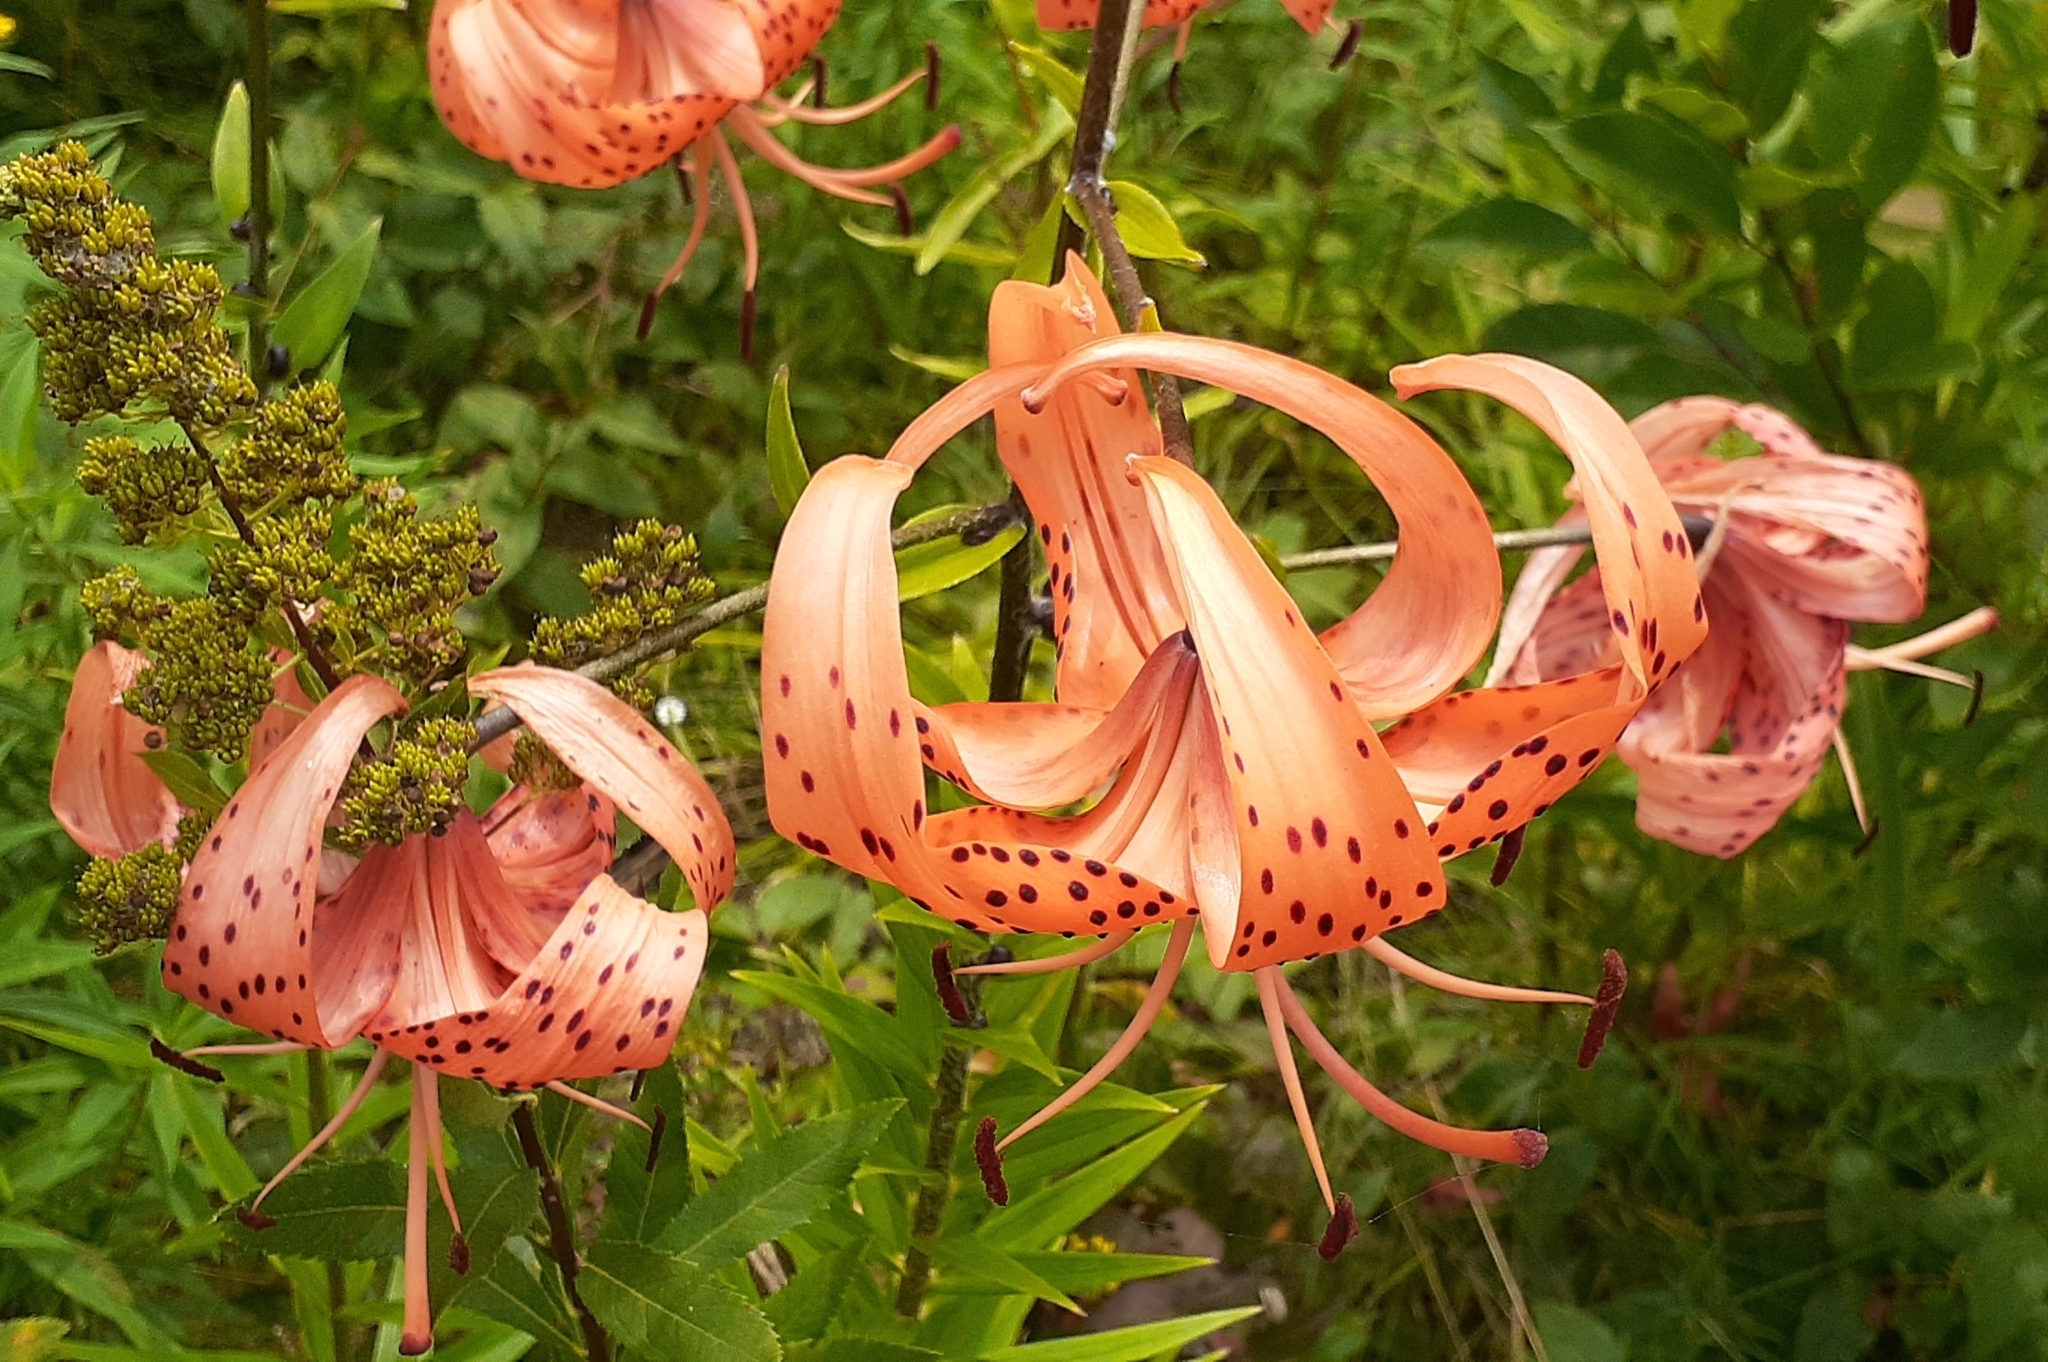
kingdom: Plantae
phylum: Tracheophyta
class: Liliopsida
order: Liliales
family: Liliaceae
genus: Lilium
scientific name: Lilium lancifolium
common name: Tiger lily
